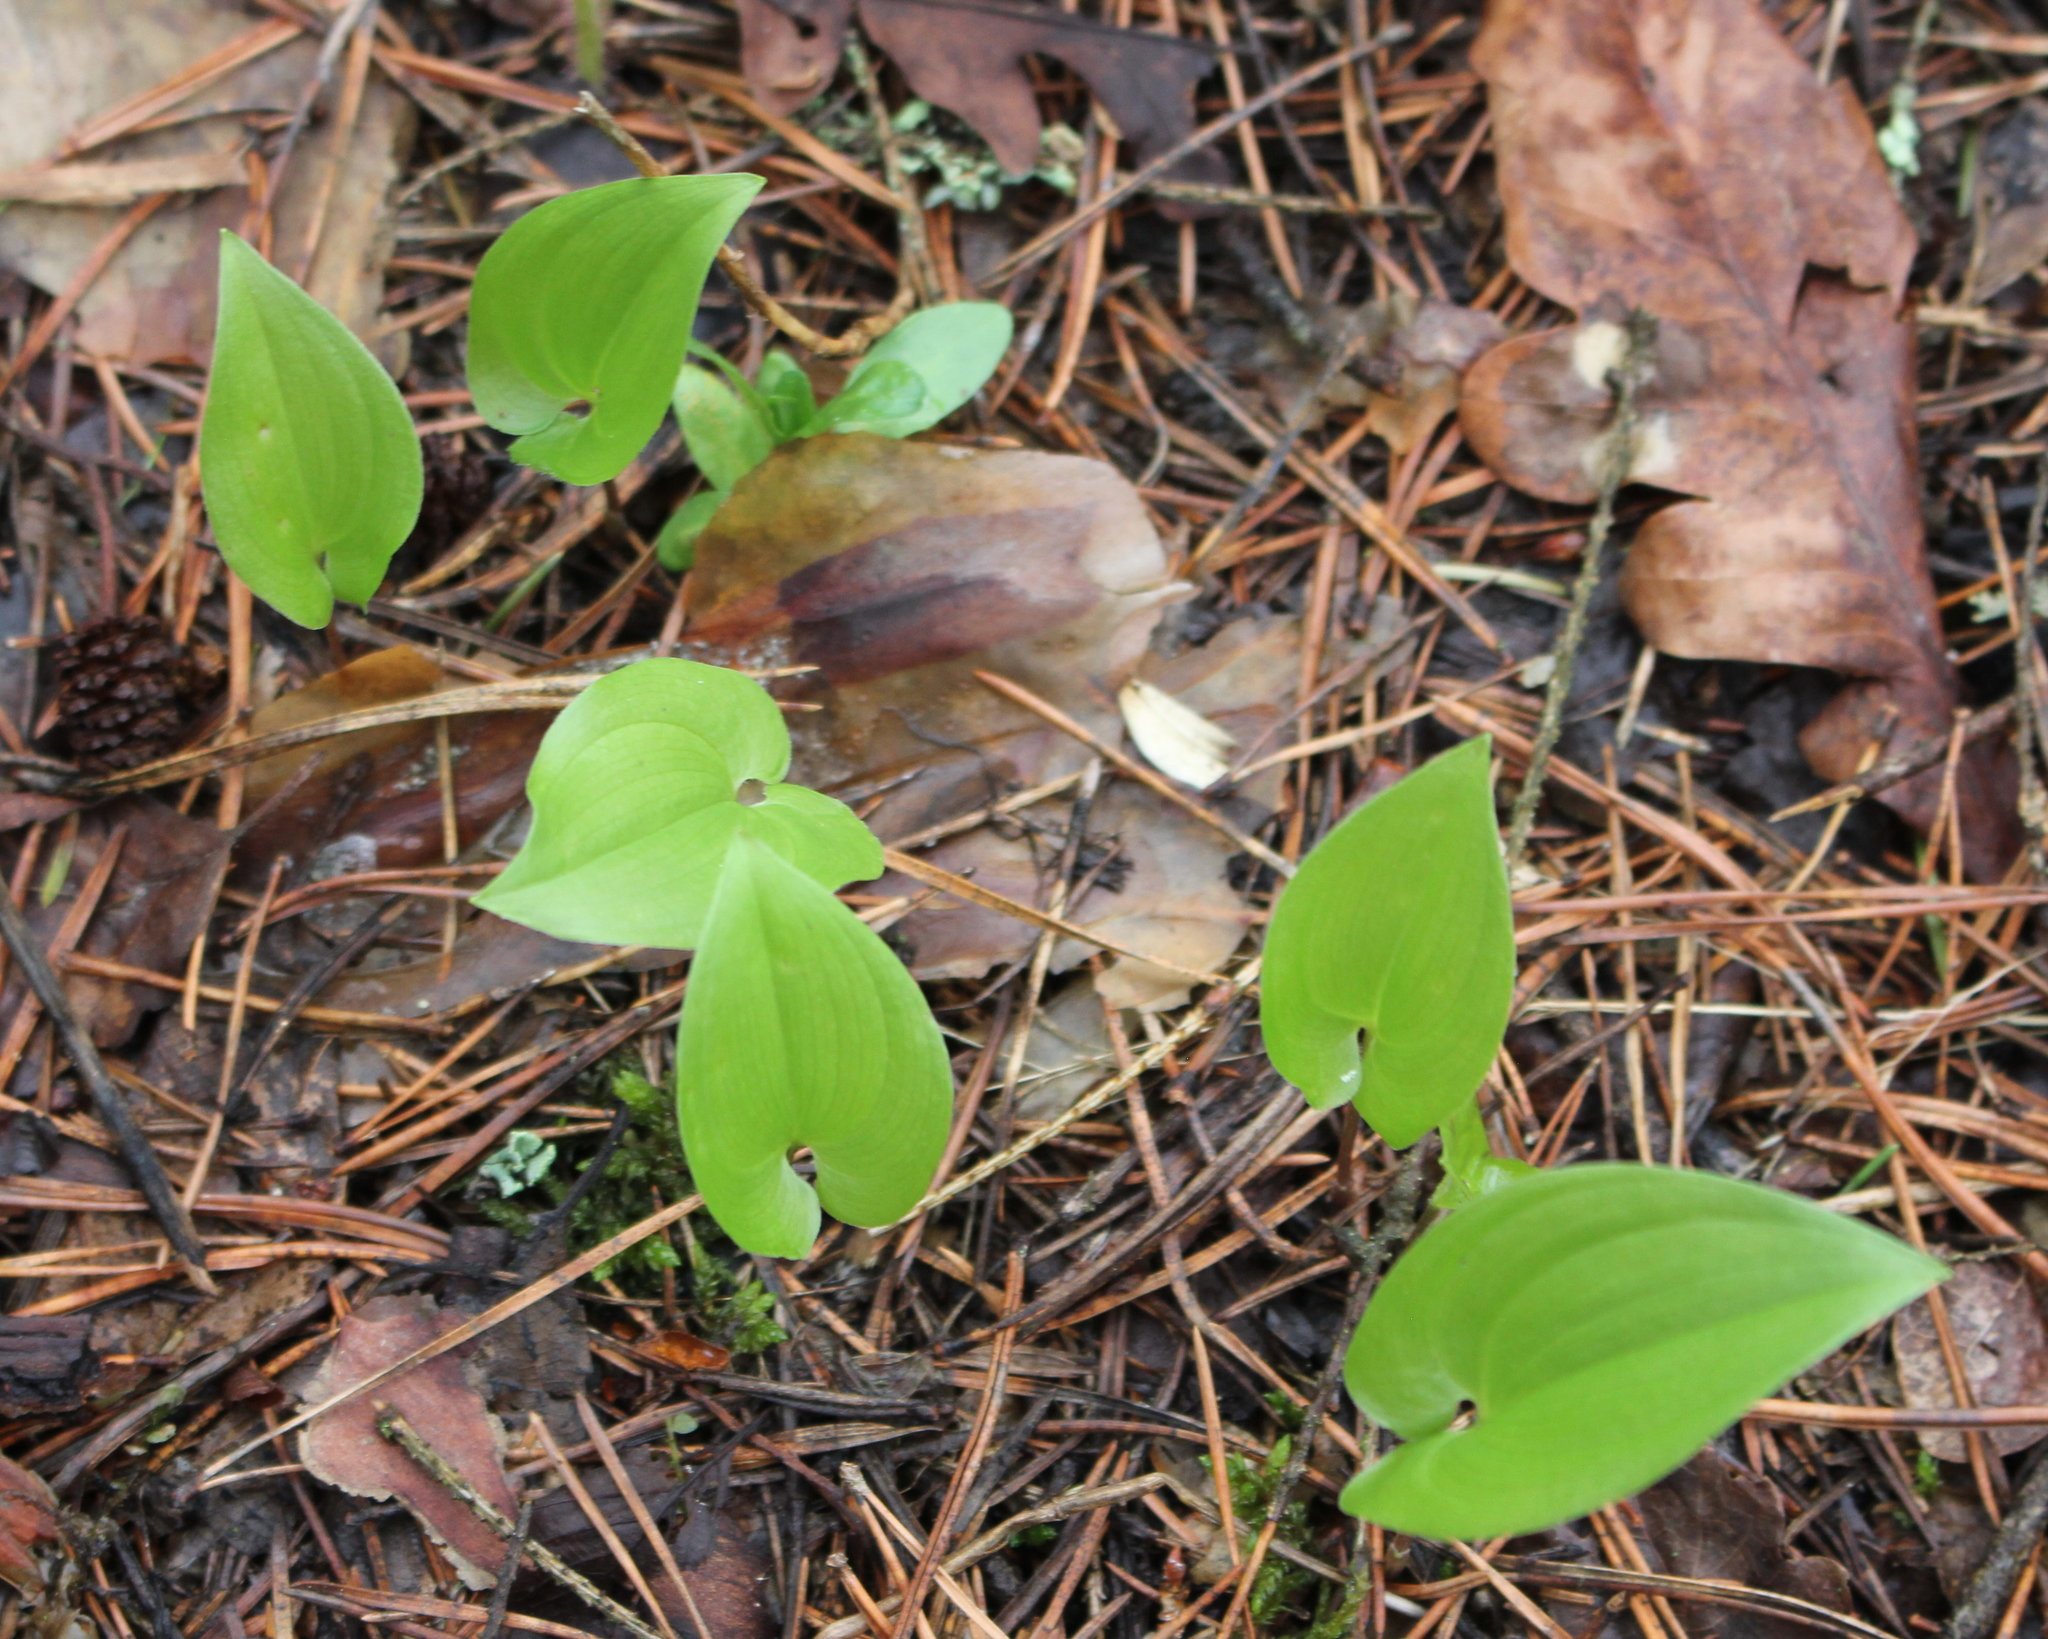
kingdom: Plantae
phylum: Tracheophyta
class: Liliopsida
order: Asparagales
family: Asparagaceae
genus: Maianthemum
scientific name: Maianthemum bifolium
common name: May lily
